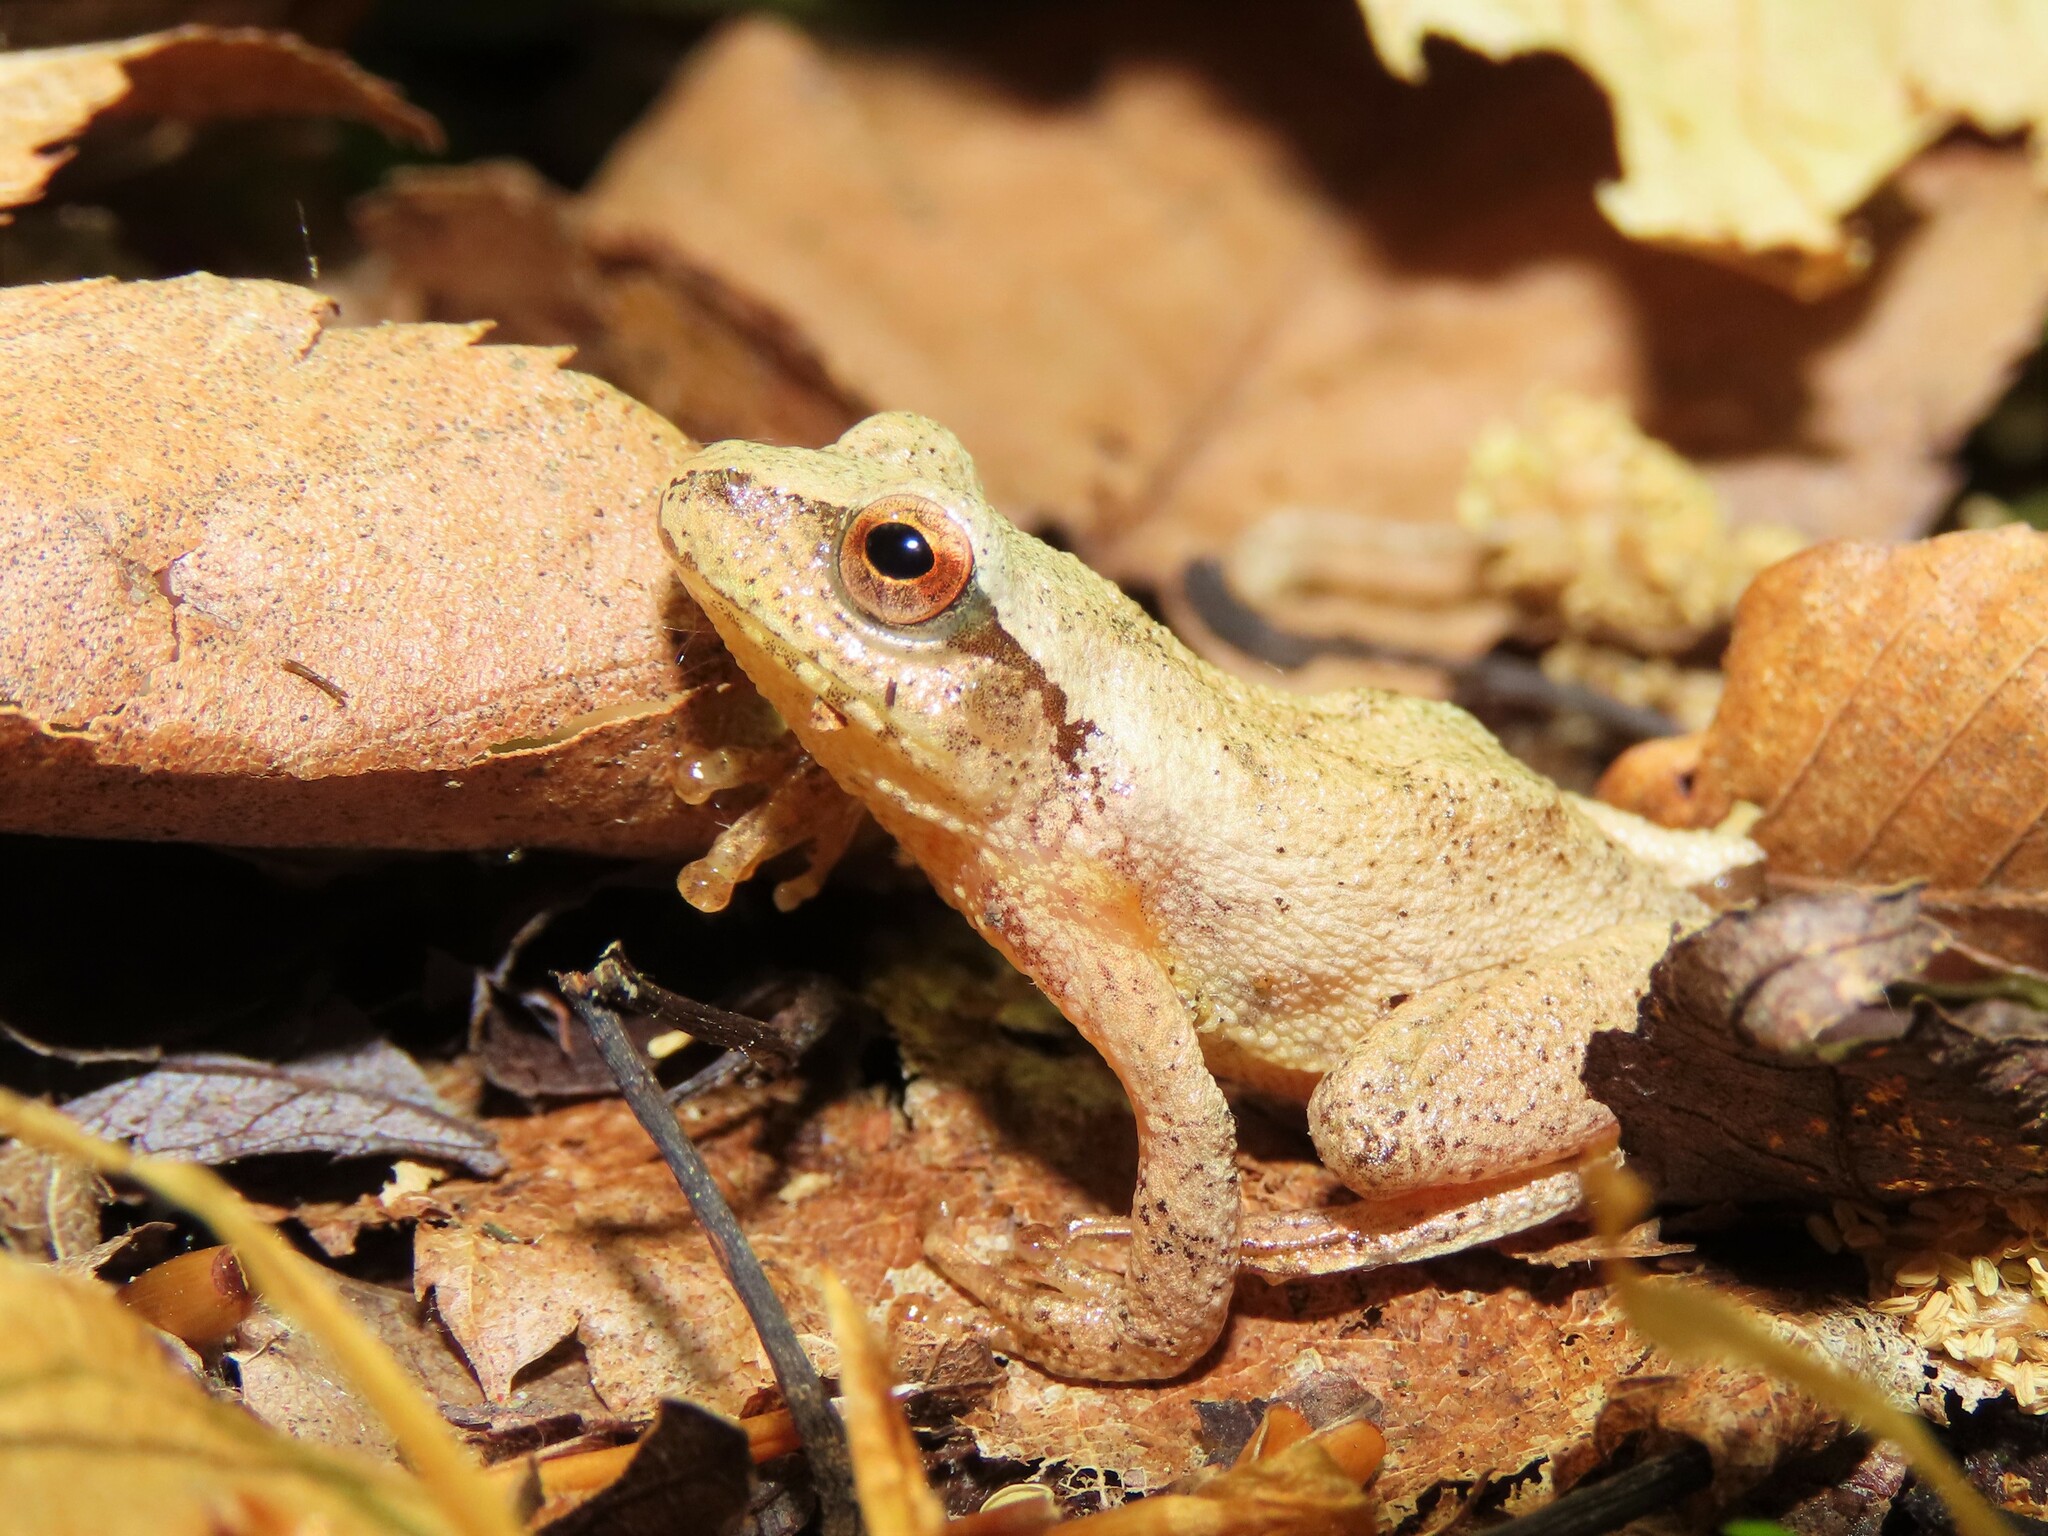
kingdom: Animalia
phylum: Chordata
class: Amphibia
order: Anura
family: Hylidae
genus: Pseudacris
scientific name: Pseudacris crucifer
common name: Spring peeper
